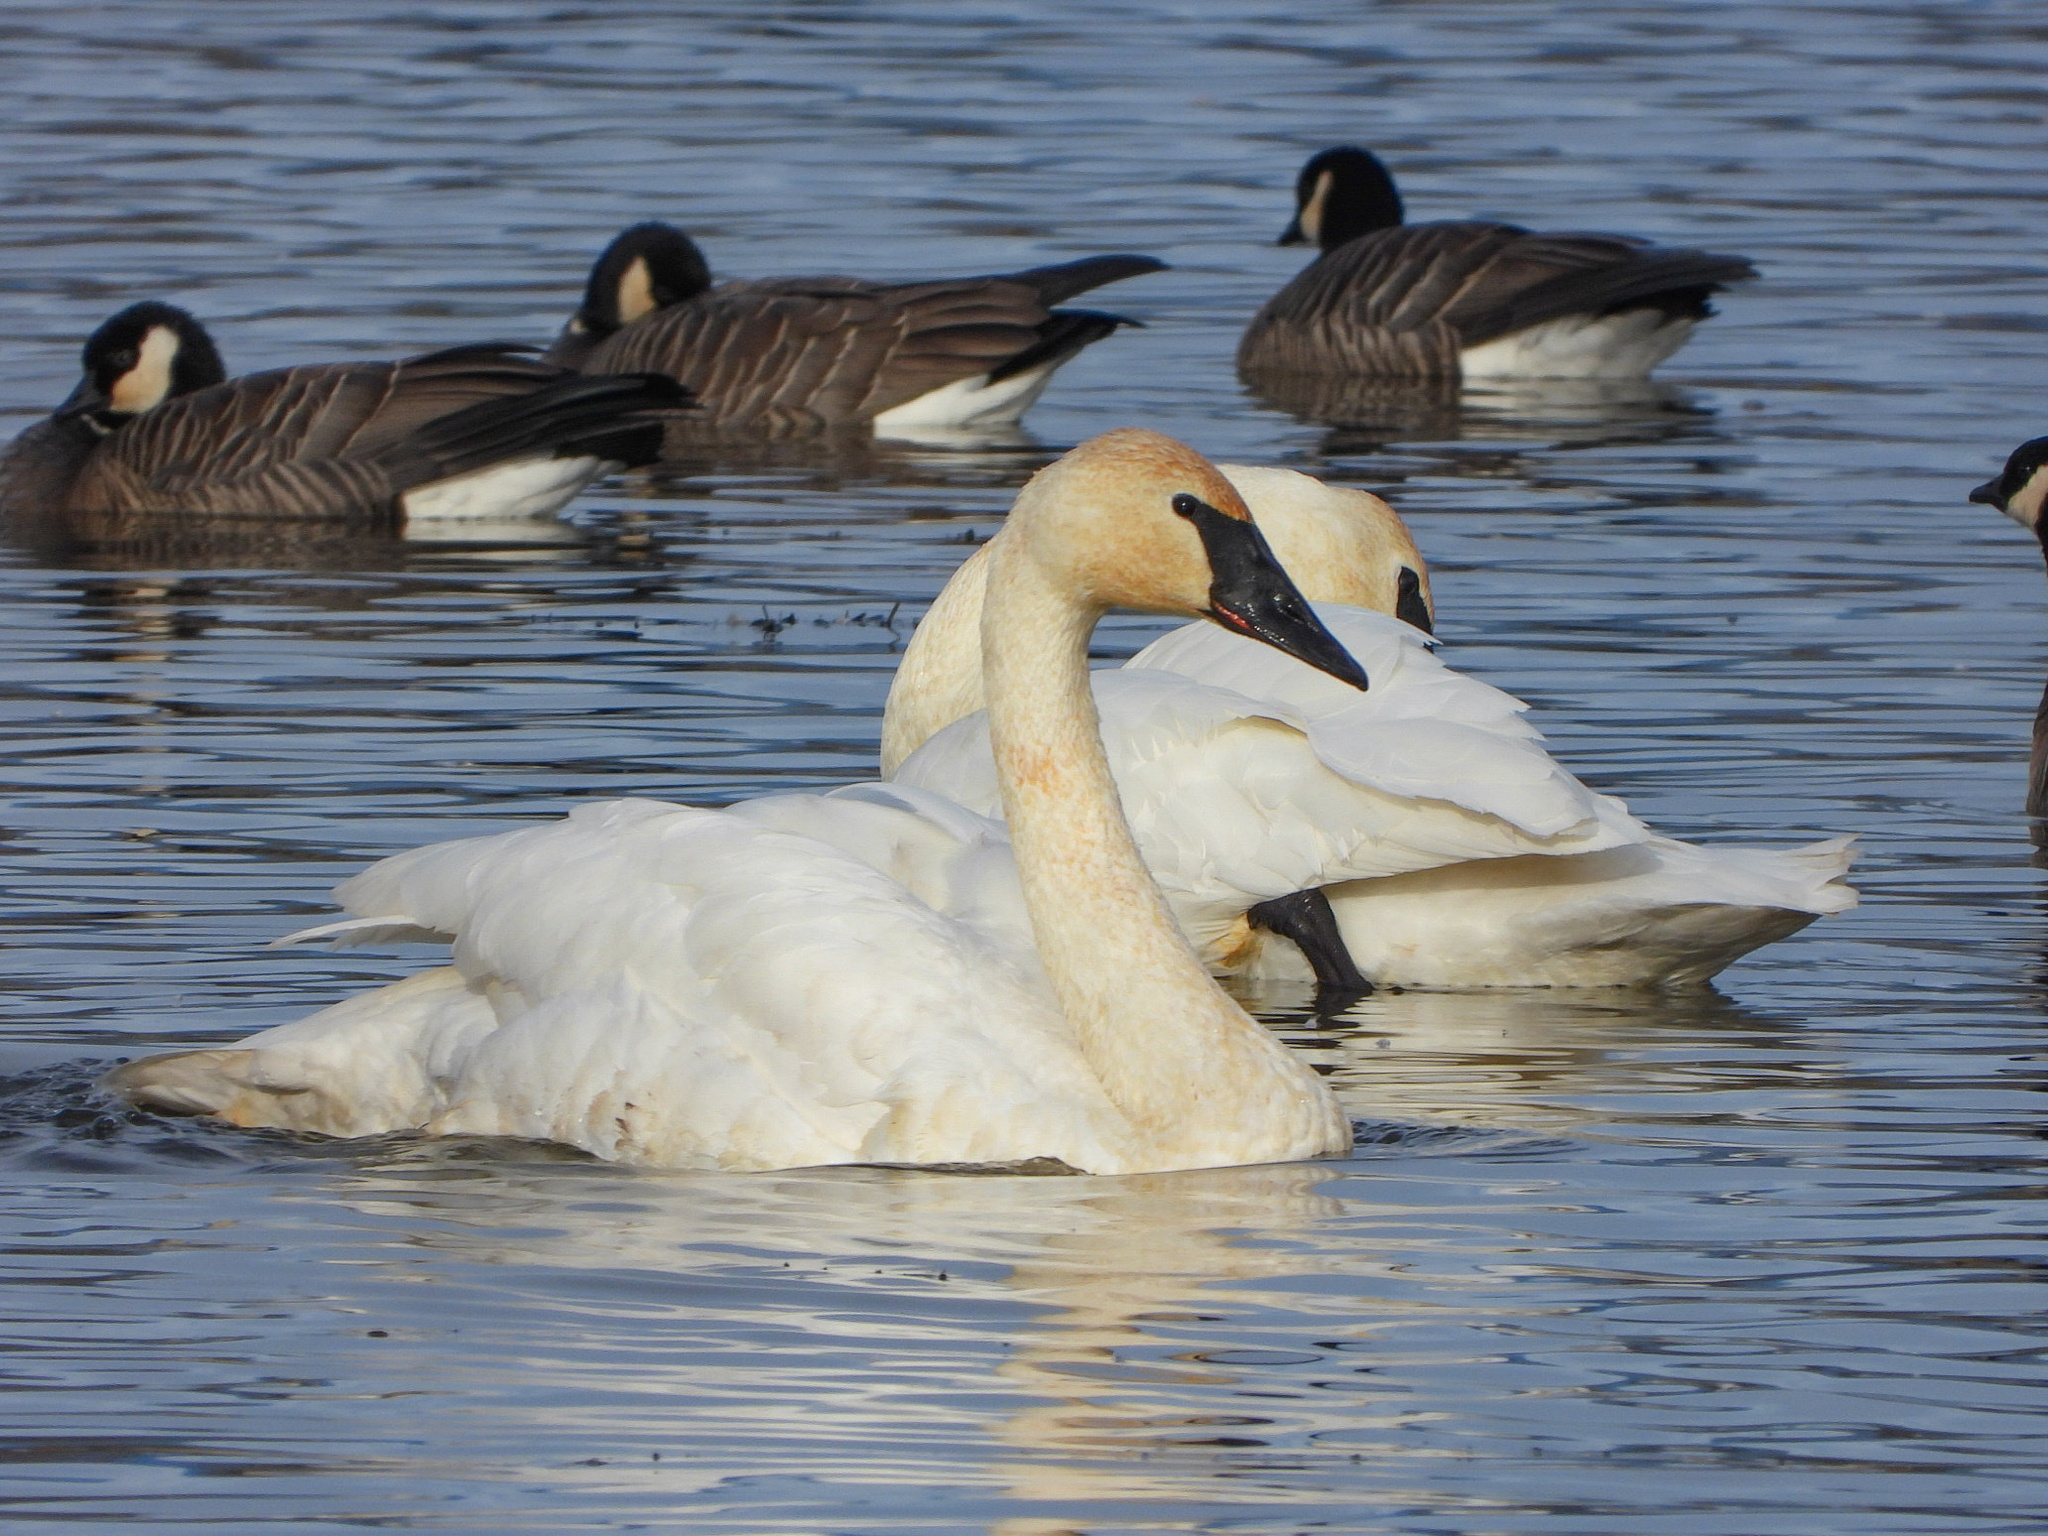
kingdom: Animalia
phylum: Chordata
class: Aves
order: Anseriformes
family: Anatidae
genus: Cygnus
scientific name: Cygnus buccinator
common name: Trumpeter swan
